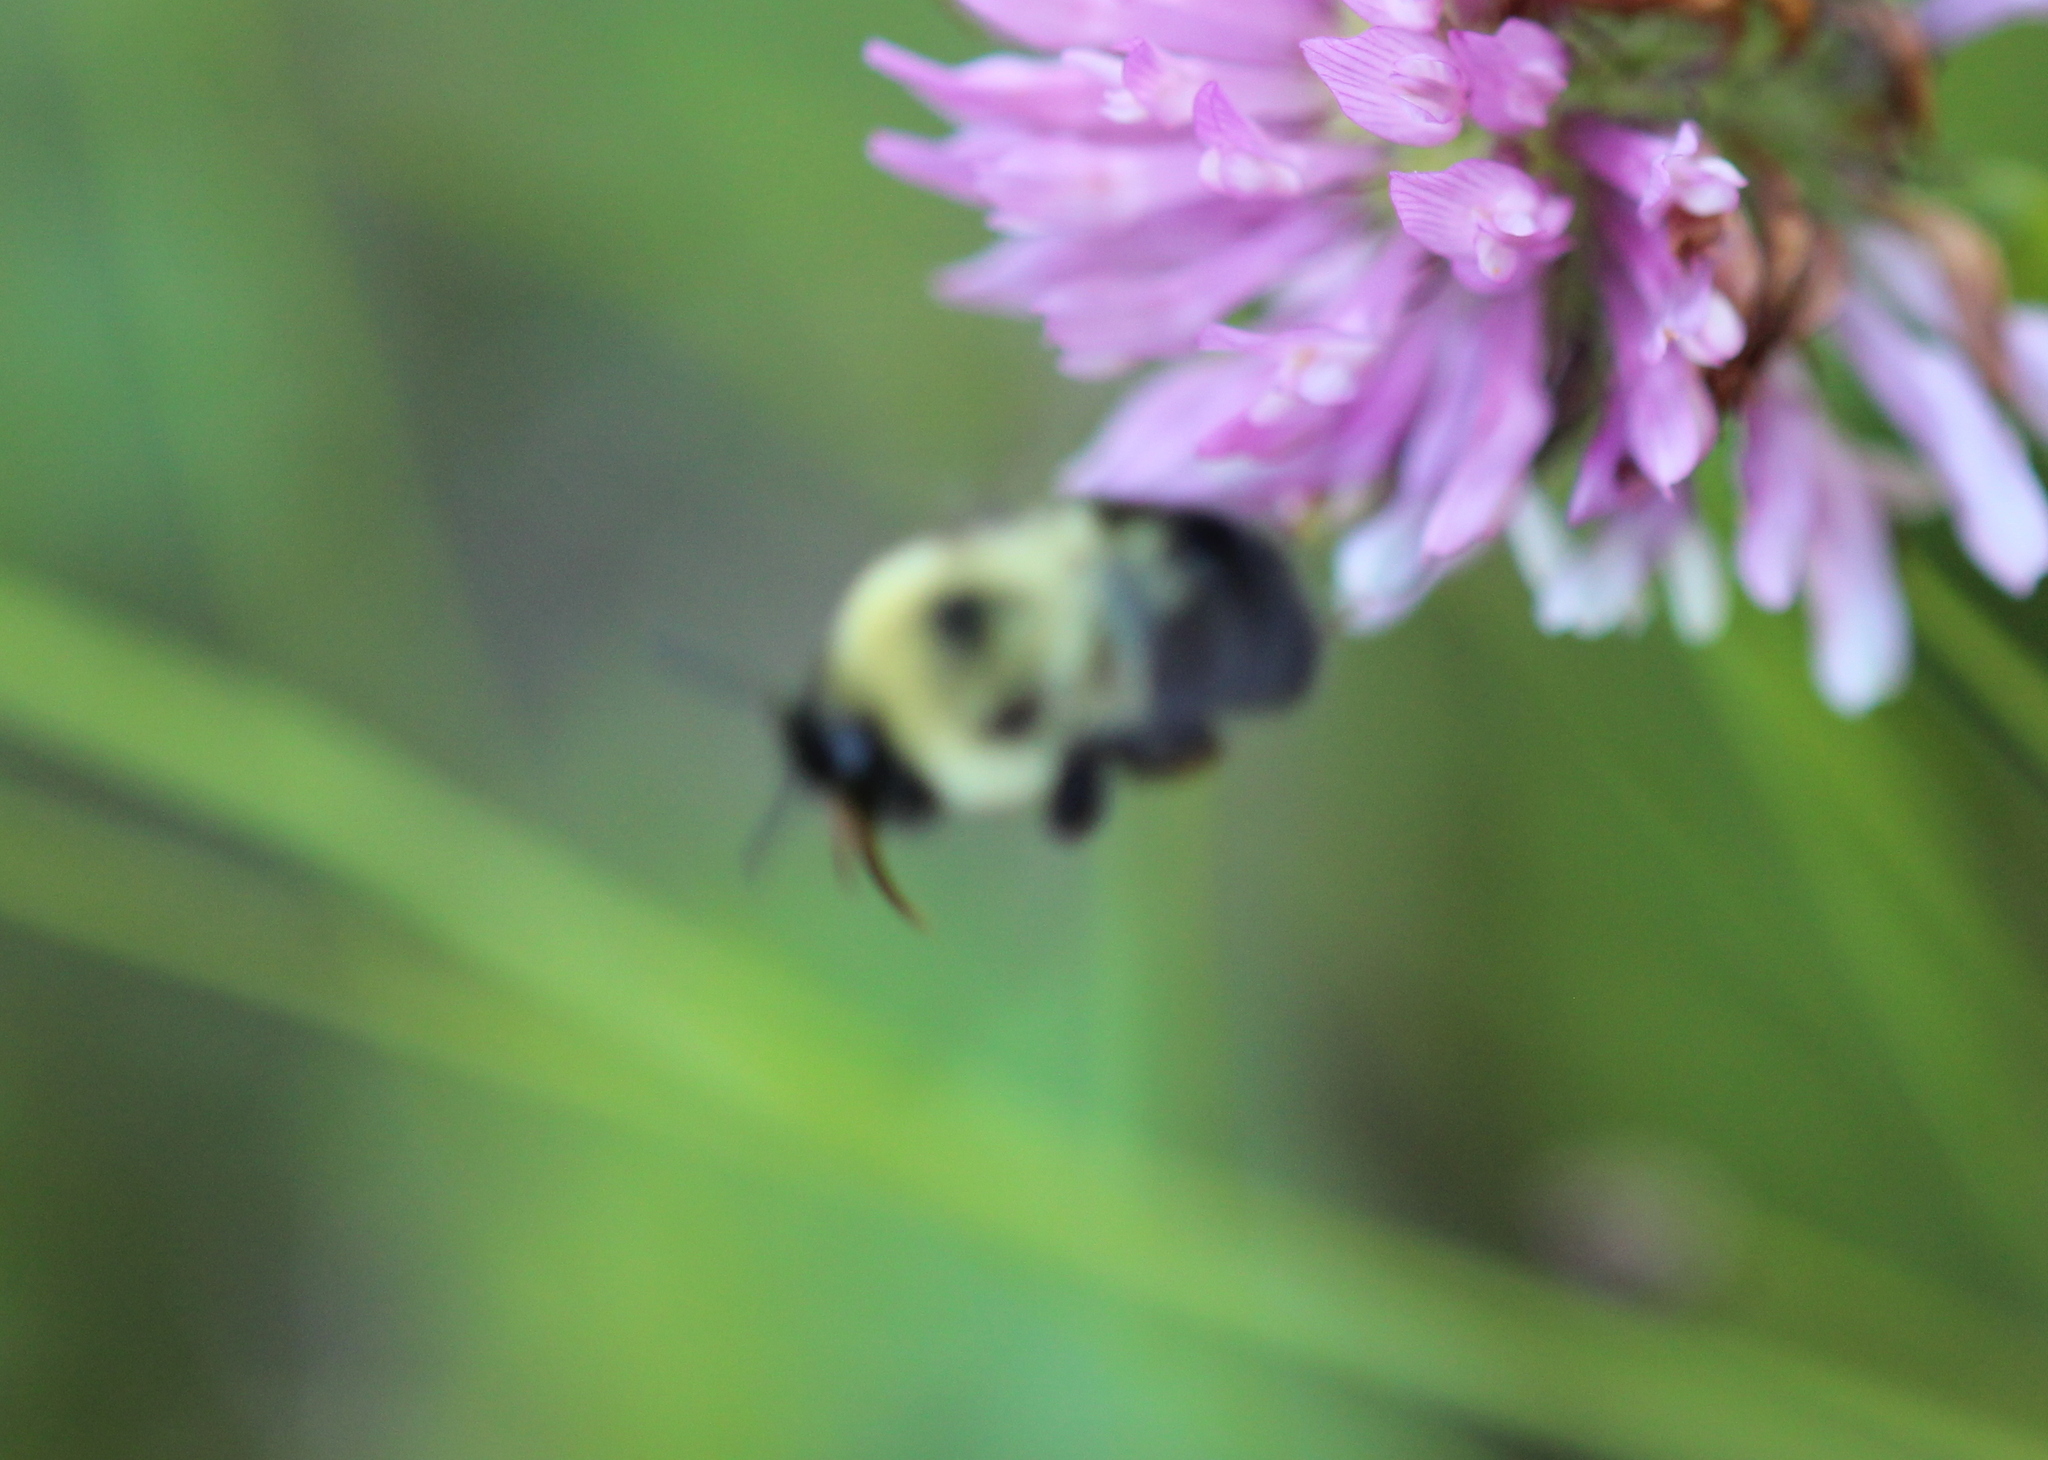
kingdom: Animalia
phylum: Arthropoda
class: Insecta
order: Hymenoptera
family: Apidae
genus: Bombus
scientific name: Bombus bimaculatus
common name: Two-spotted bumble bee
